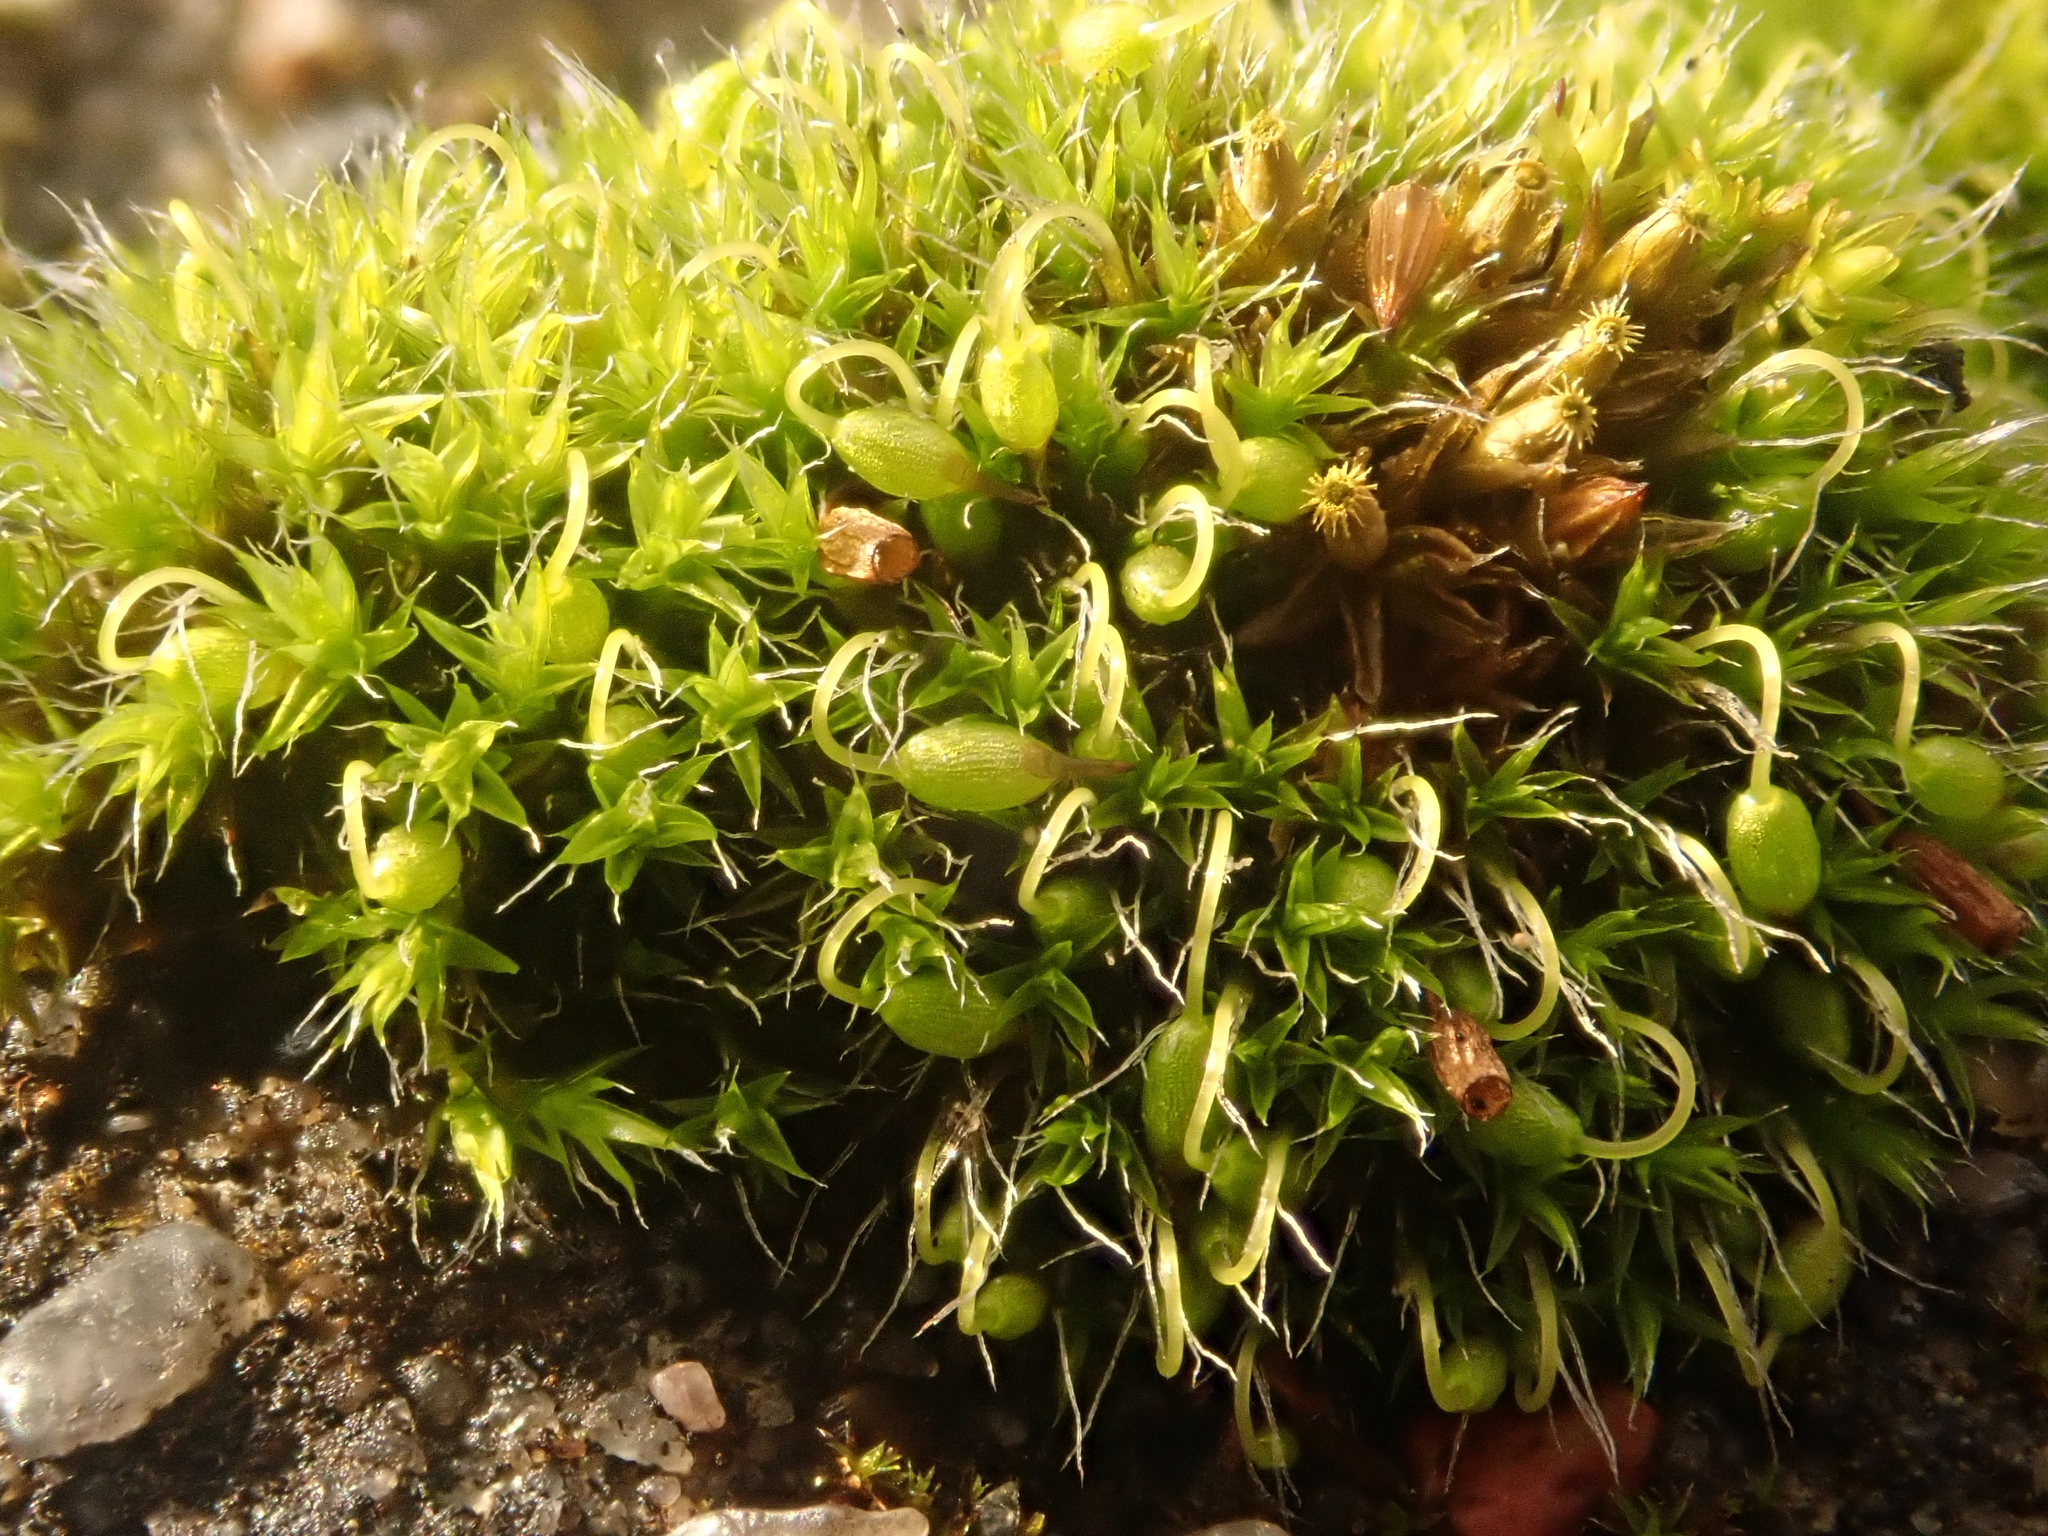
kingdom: Plantae
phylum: Bryophyta
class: Bryopsida
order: Grimmiales
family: Grimmiaceae
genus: Grimmia
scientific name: Grimmia pulvinata
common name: Grey-cushioned grimmia
